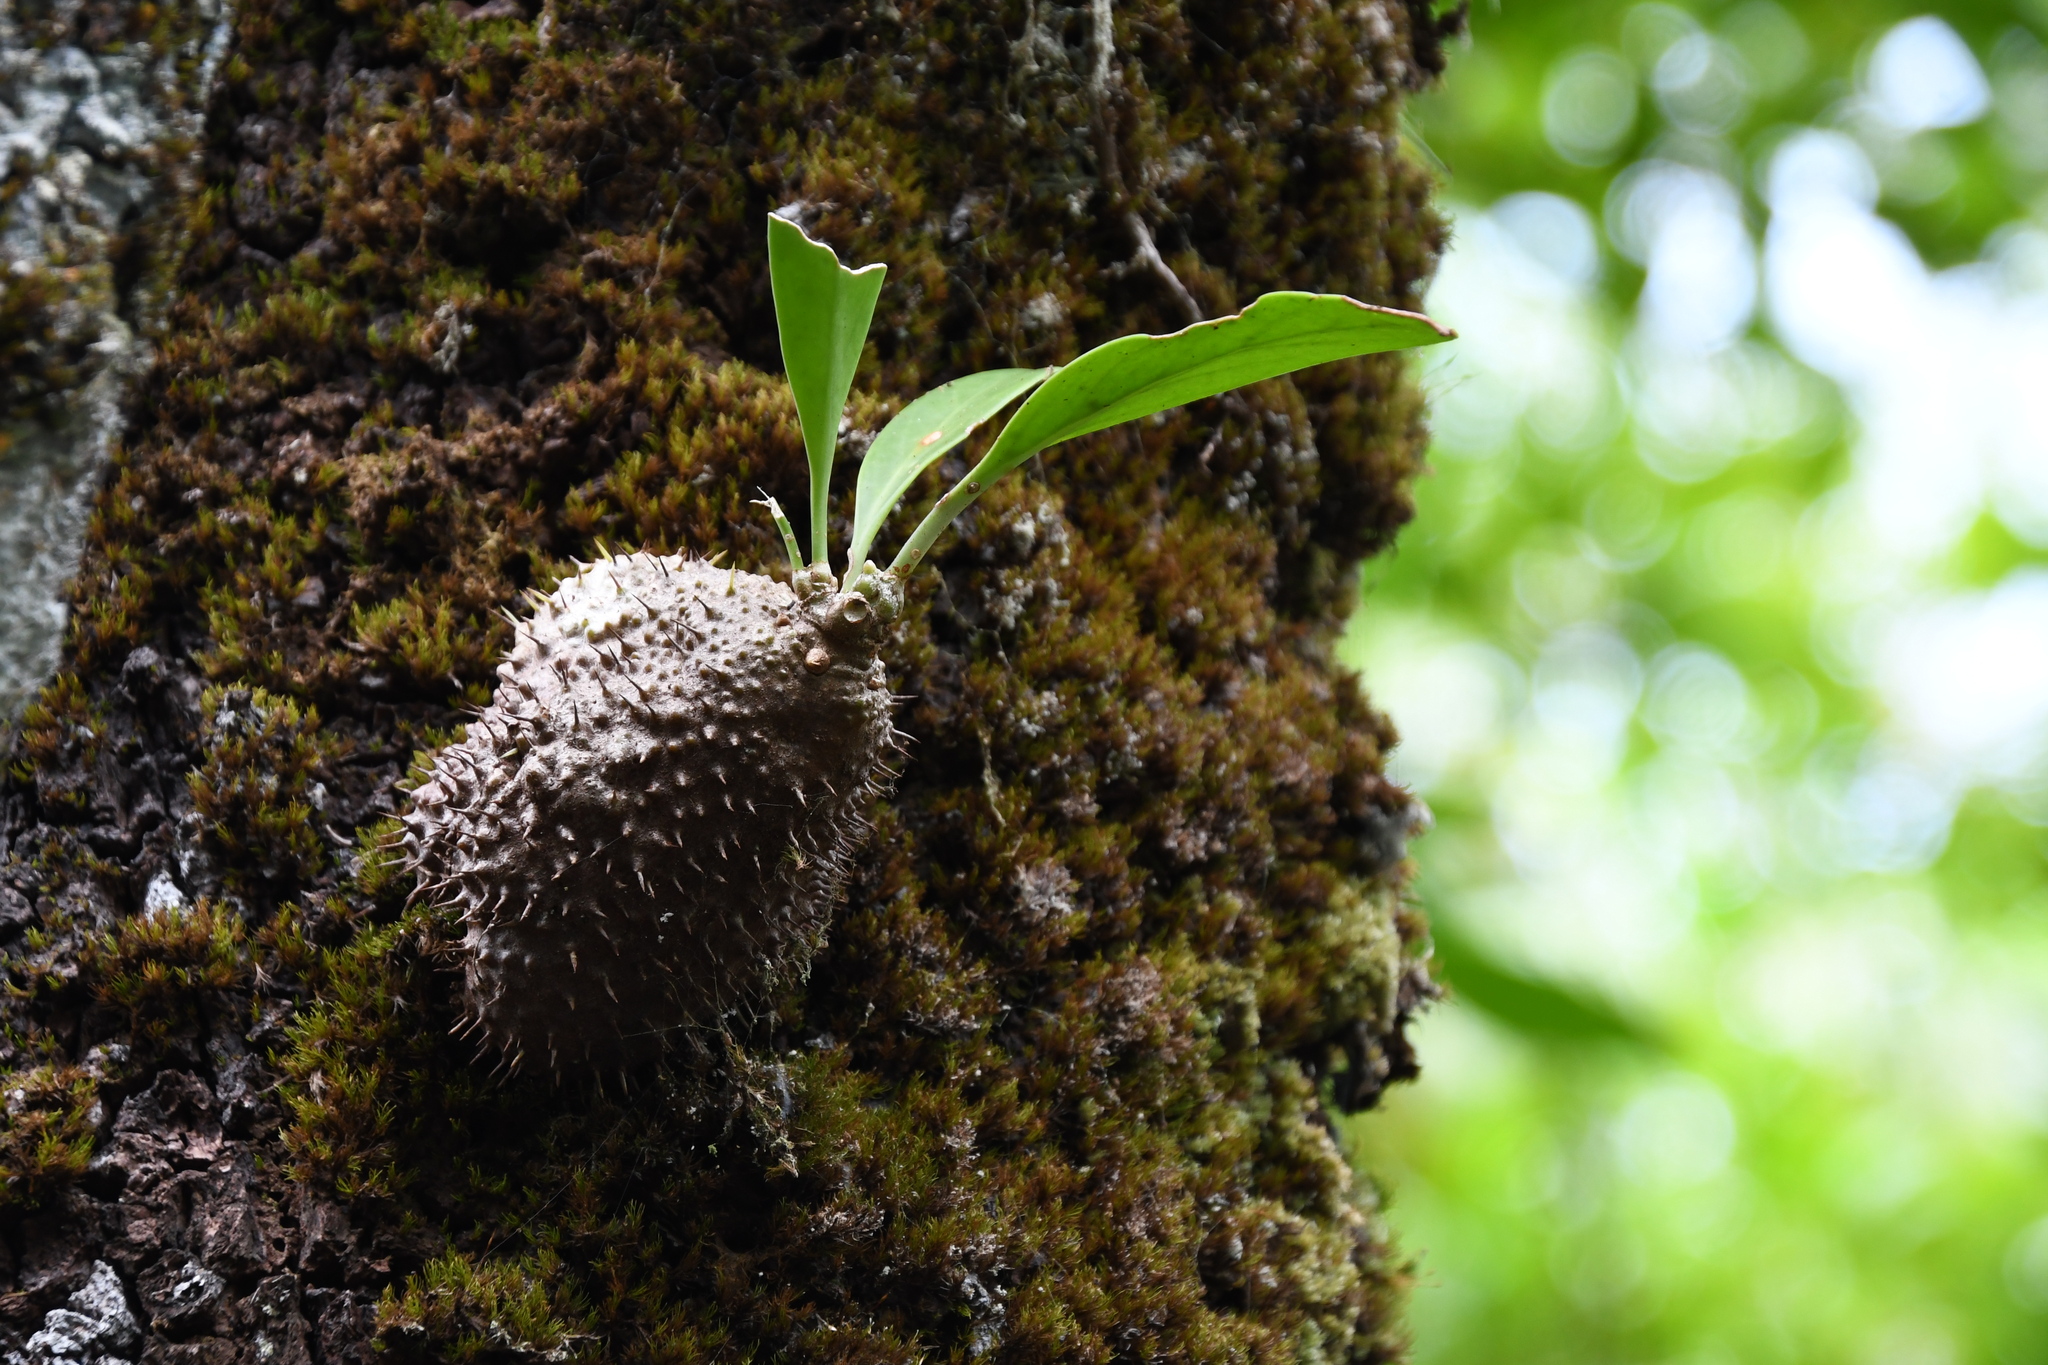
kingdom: Plantae
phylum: Tracheophyta
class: Magnoliopsida
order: Gentianales
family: Rubiaceae
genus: Myrmecodia
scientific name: Myrmecodia beccarii
